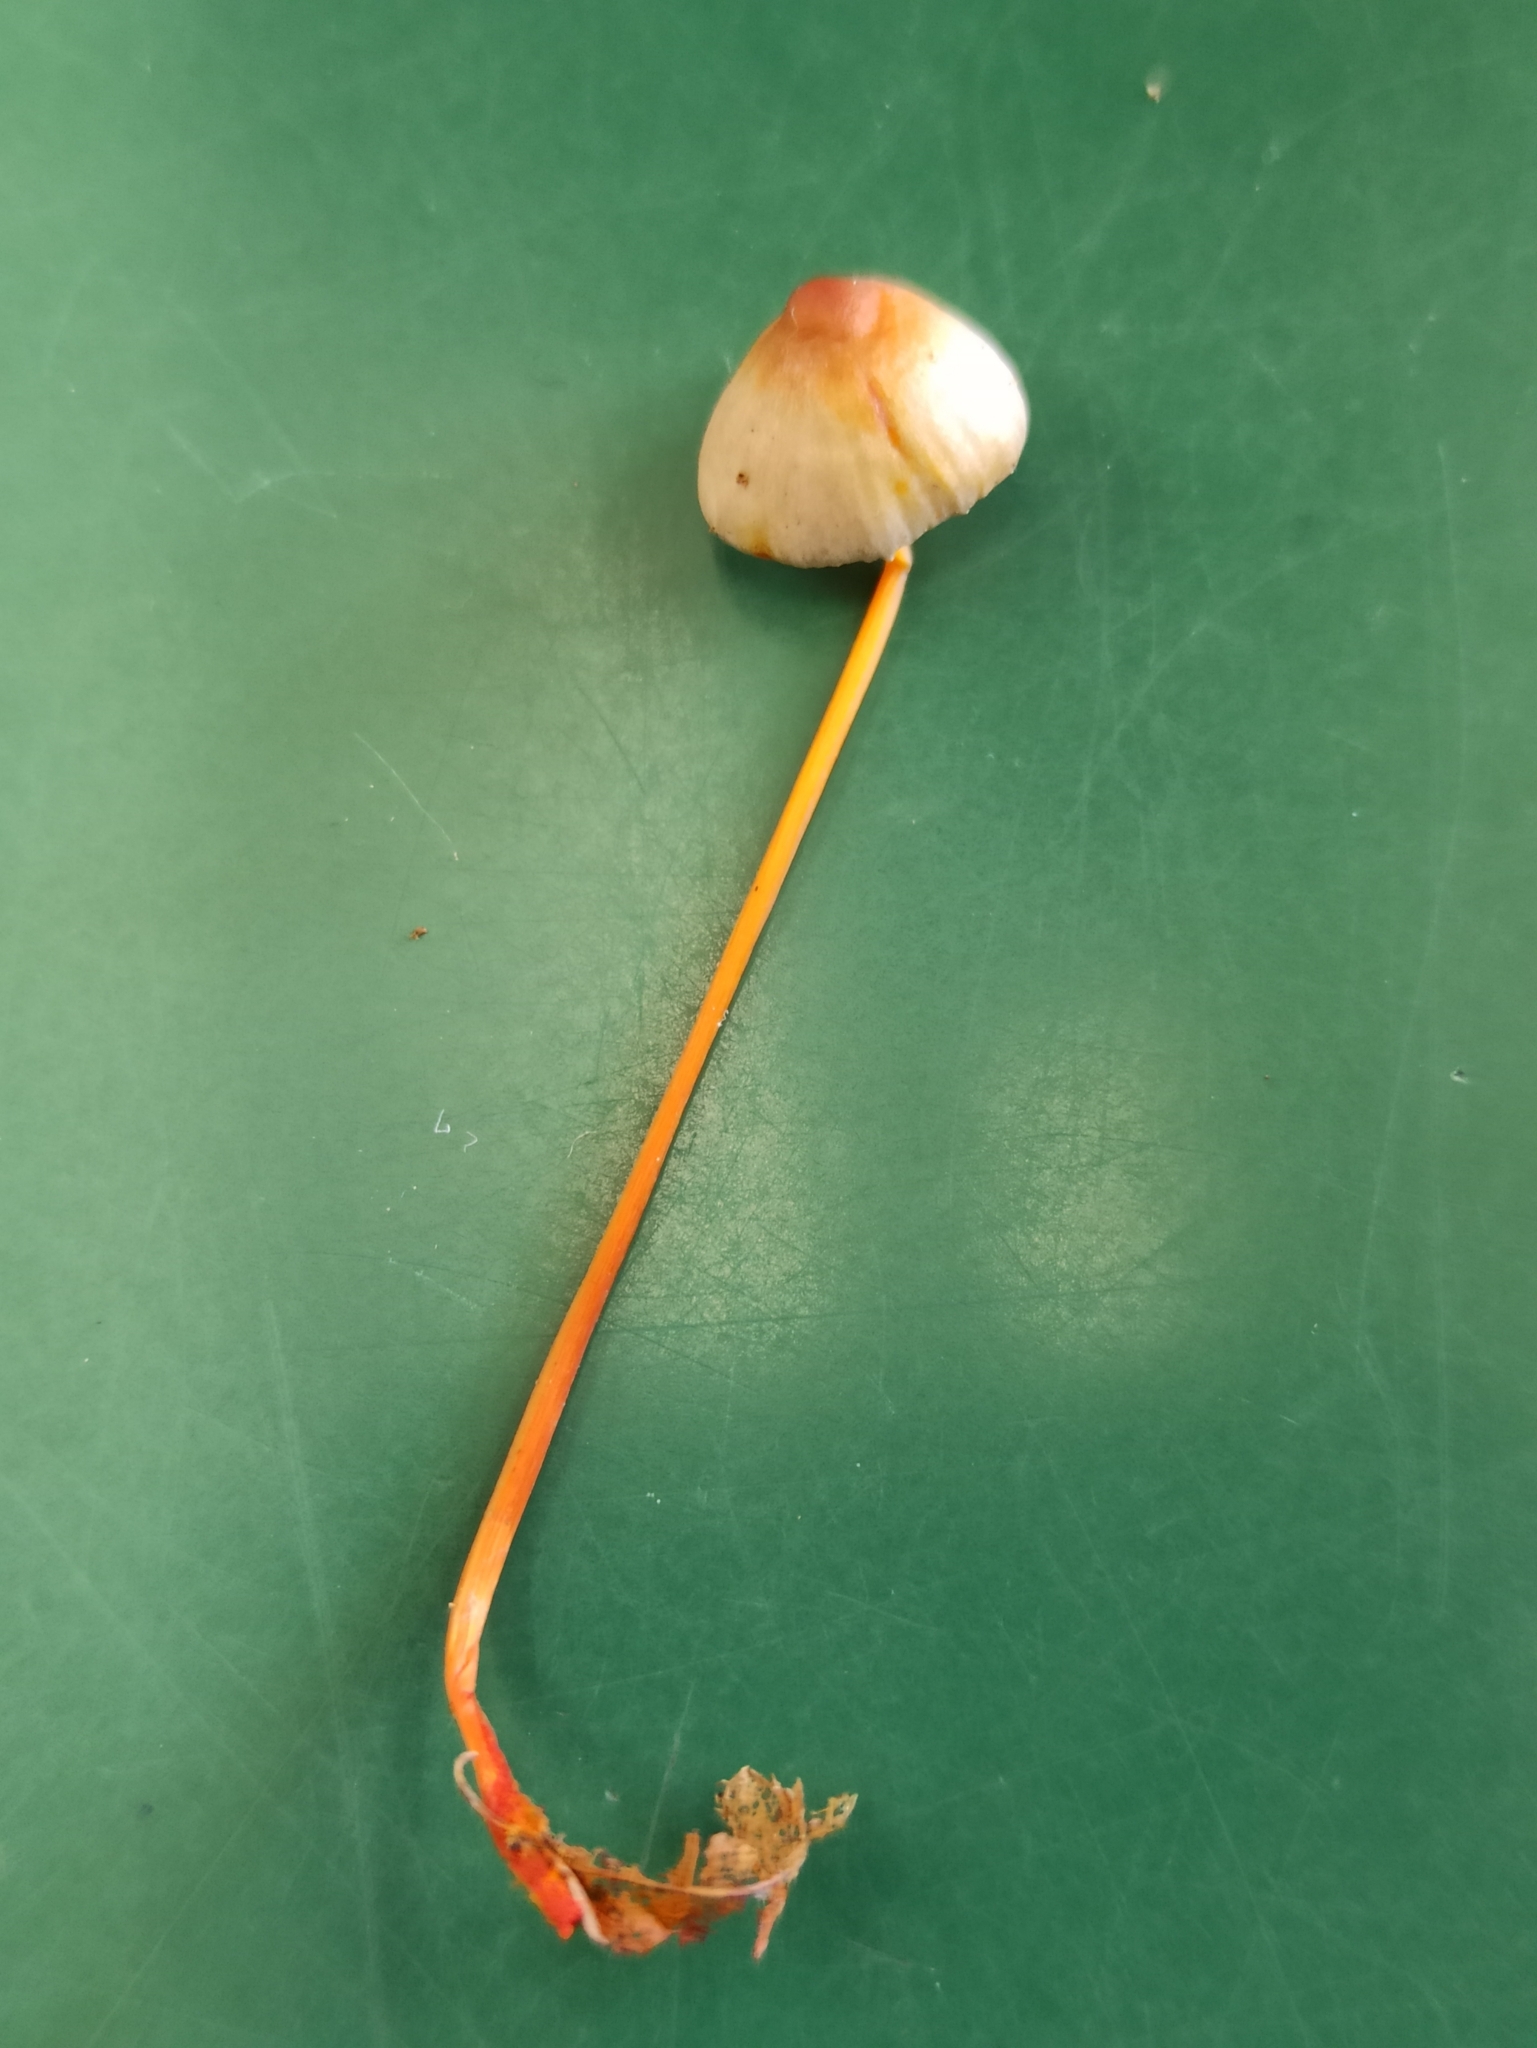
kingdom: Fungi
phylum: Basidiomycota
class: Agaricomycetes
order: Agaricales
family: Mycenaceae
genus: Mycena
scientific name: Mycena crocata
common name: Saffrondrop bonnet
